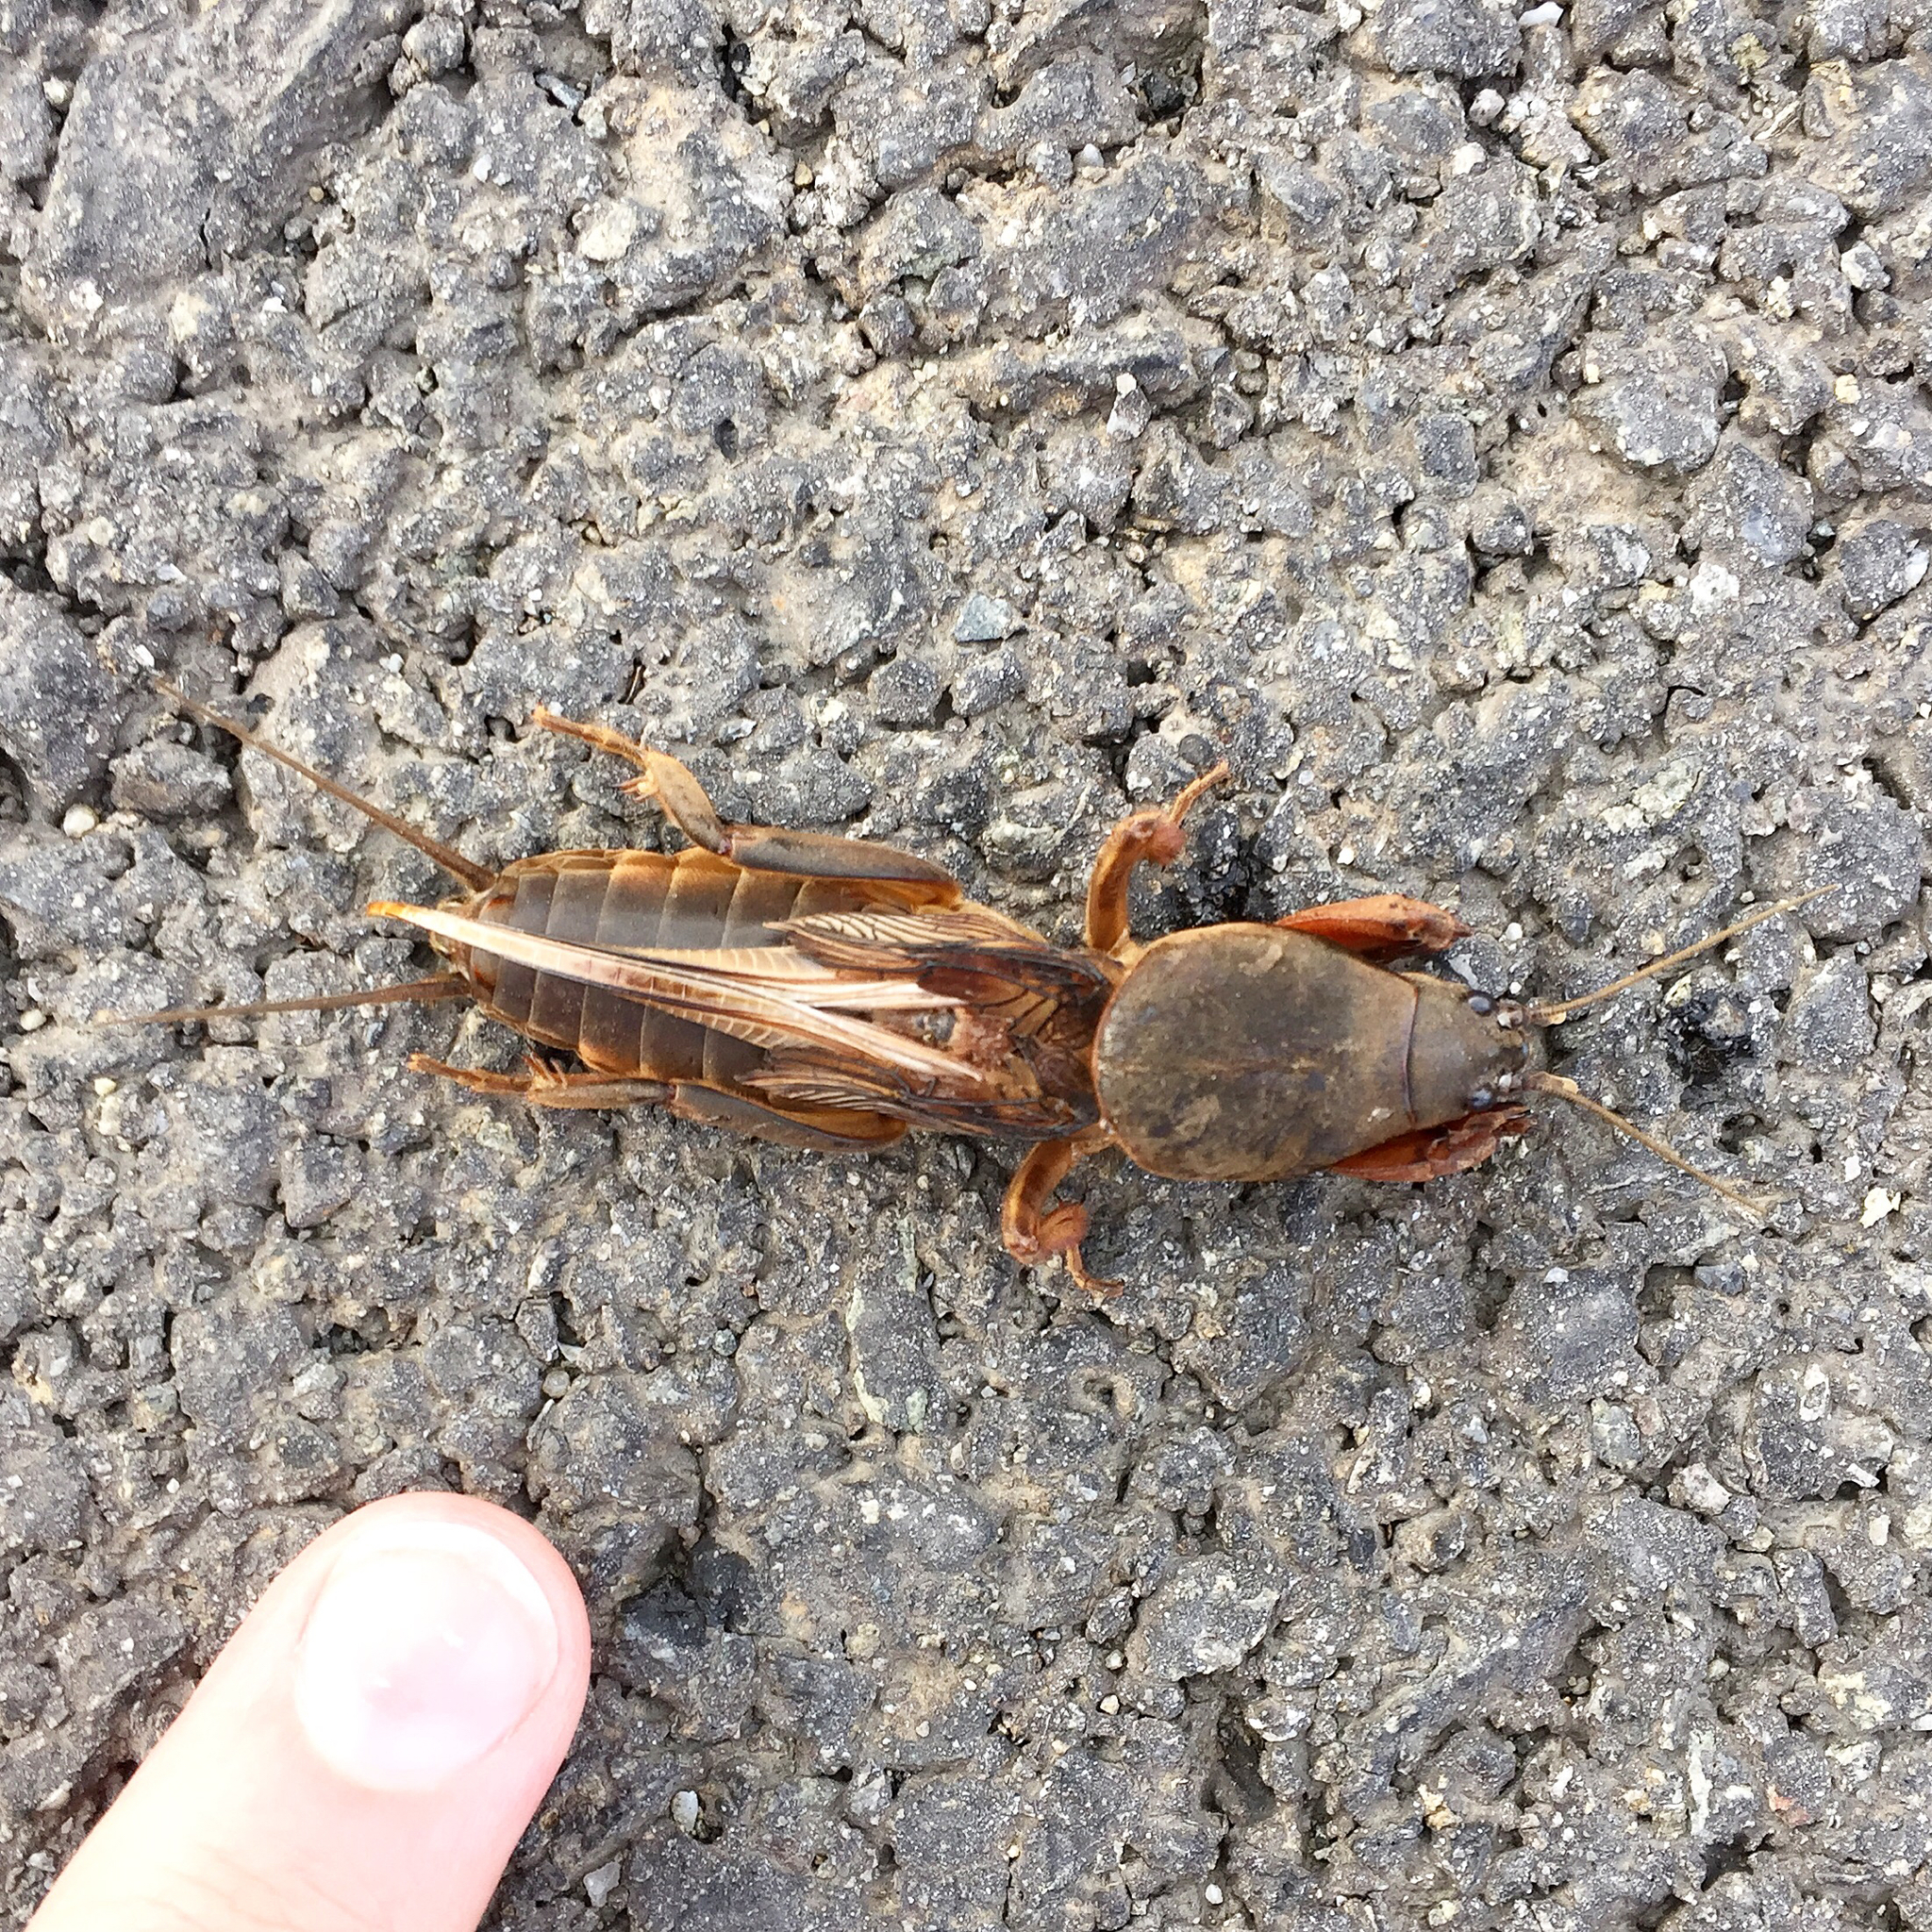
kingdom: Animalia
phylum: Arthropoda
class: Insecta
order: Orthoptera
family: Gryllotalpidae
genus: Gryllotalpa
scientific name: Gryllotalpa gryllotalpa
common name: European mole cricket
